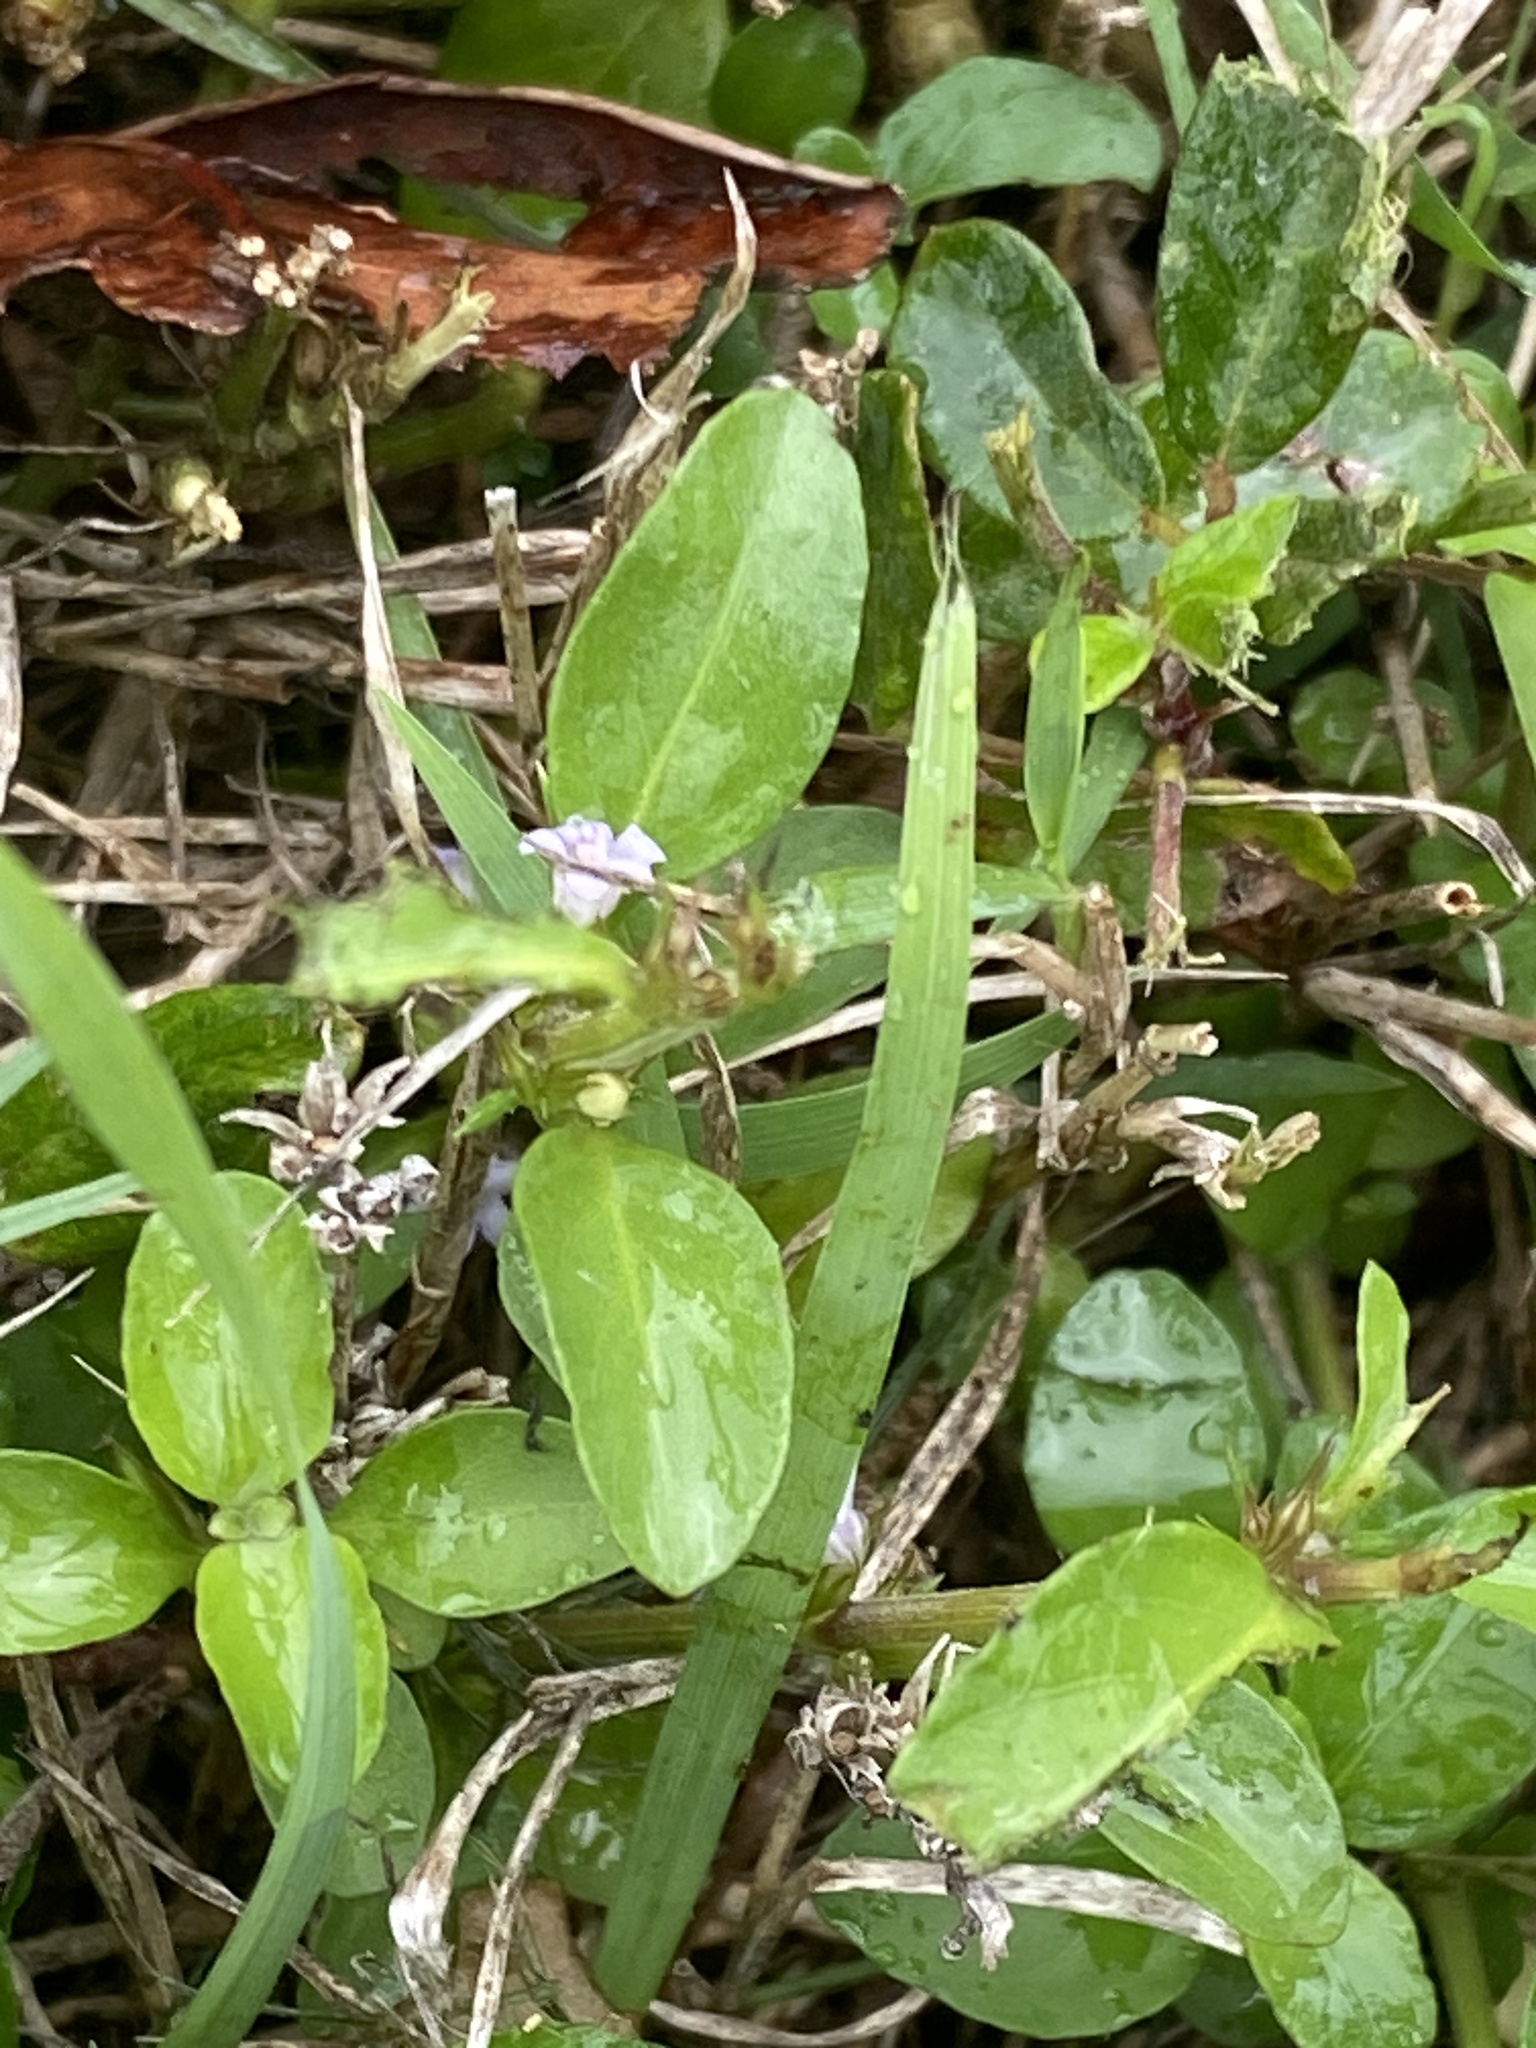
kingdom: Plantae
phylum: Tracheophyta
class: Magnoliopsida
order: Lamiales
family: Acanthaceae
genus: Hygrophila
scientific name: Hygrophila erecta
